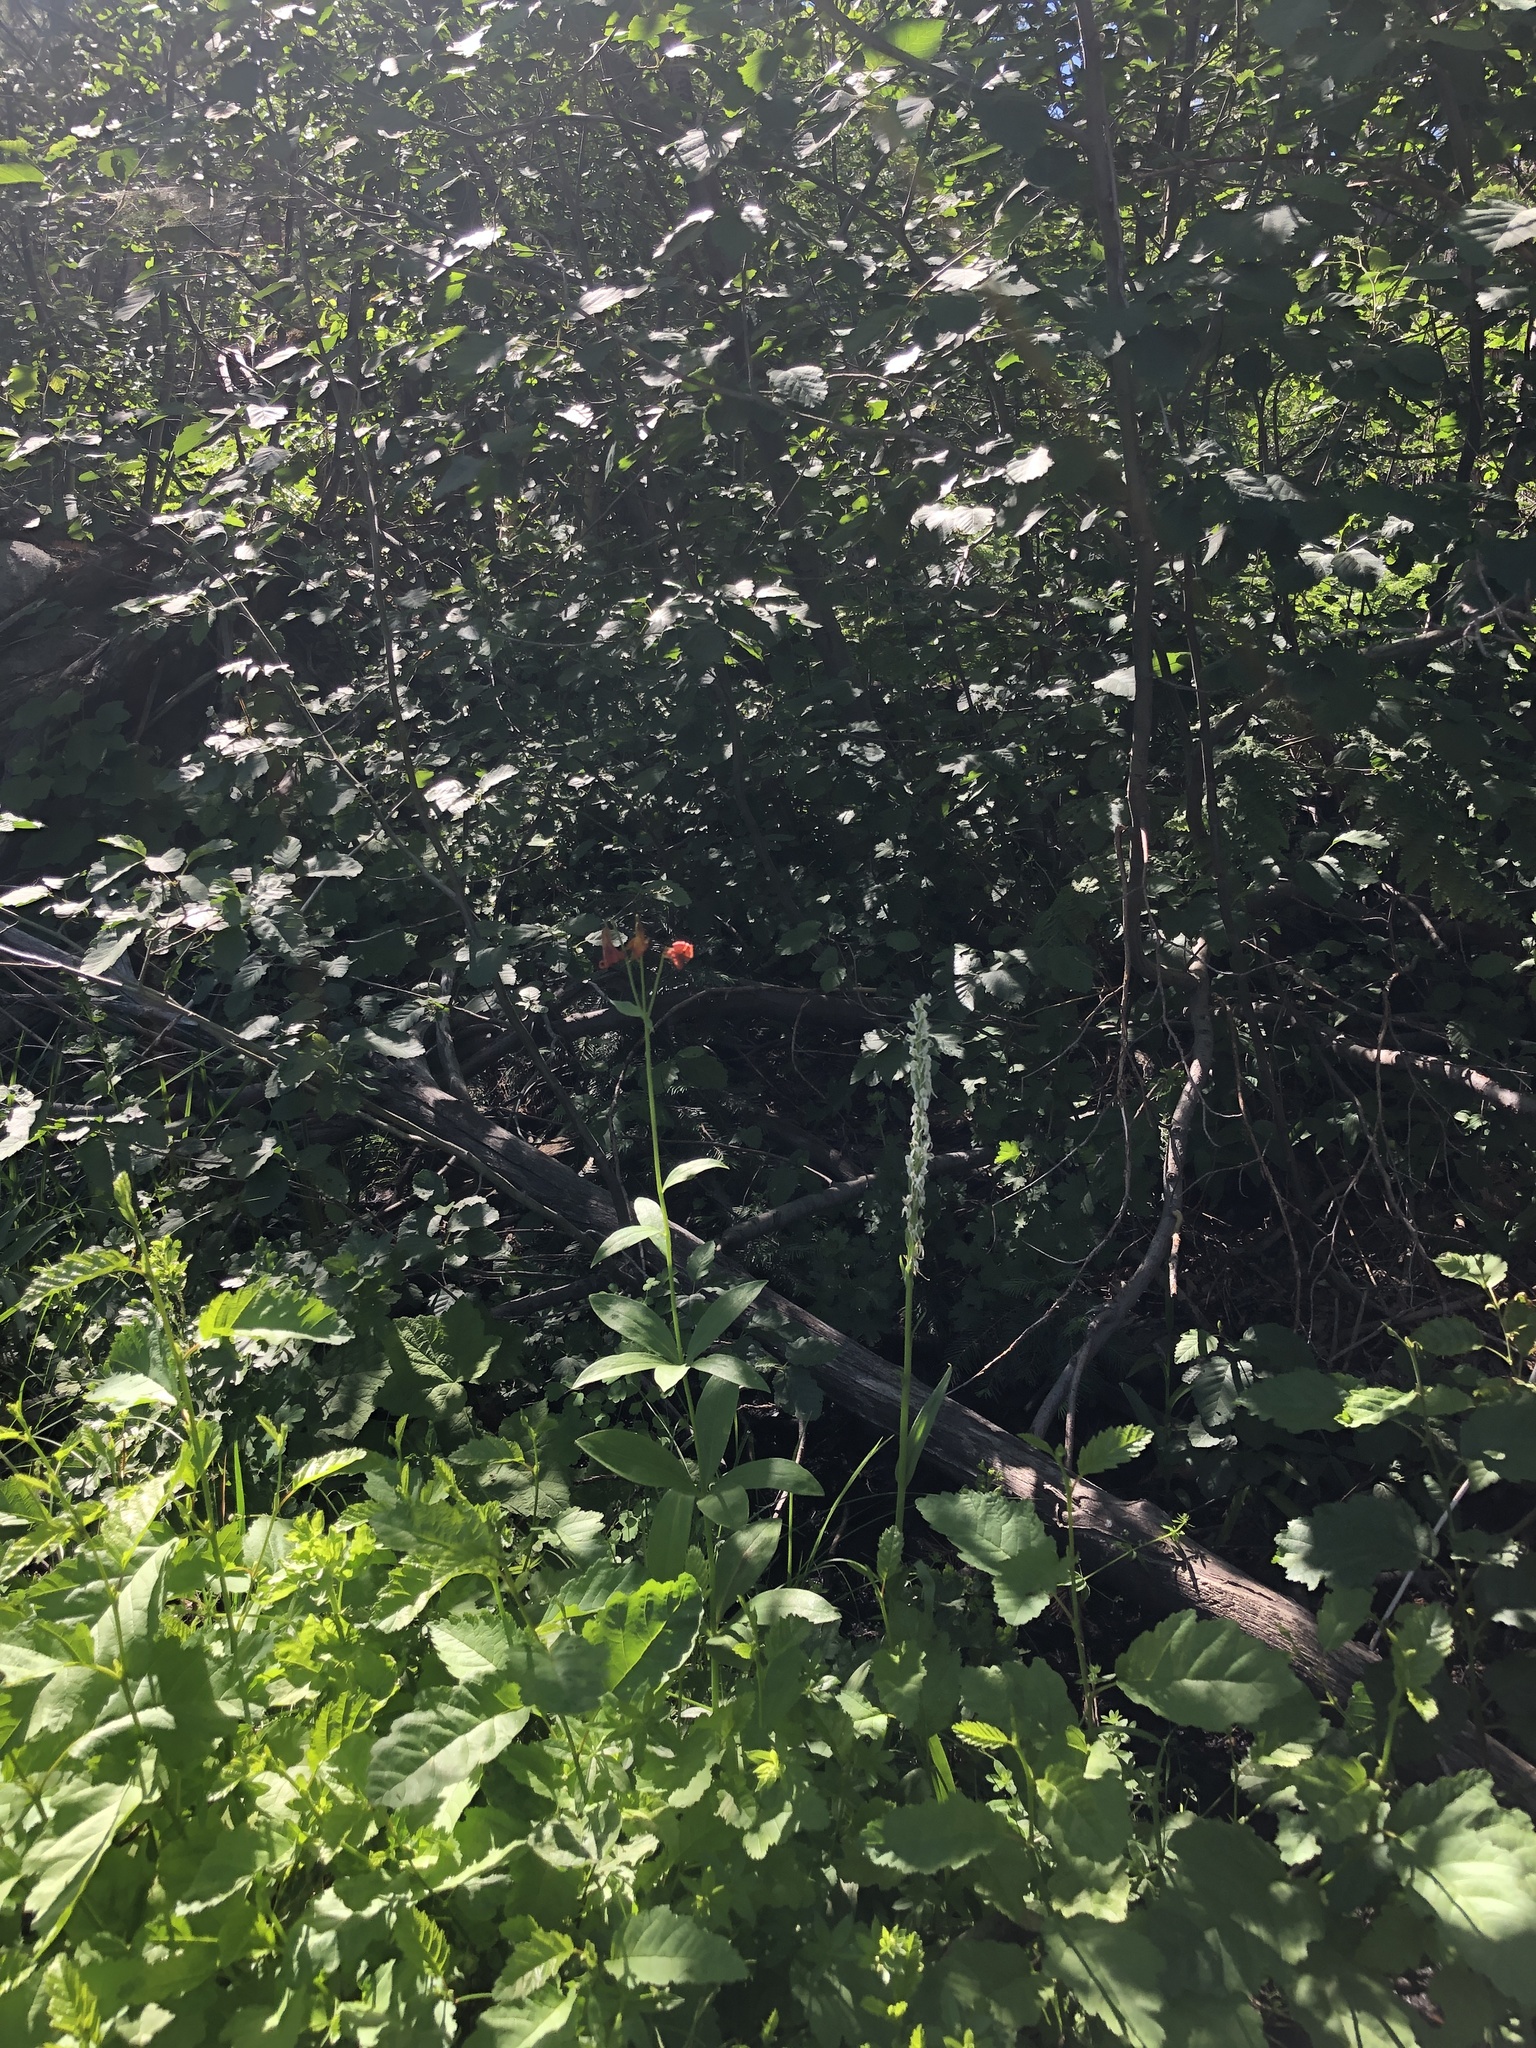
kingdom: Plantae
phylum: Tracheophyta
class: Liliopsida
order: Liliales
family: Liliaceae
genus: Lilium
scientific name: Lilium parvum
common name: Alpine lily
